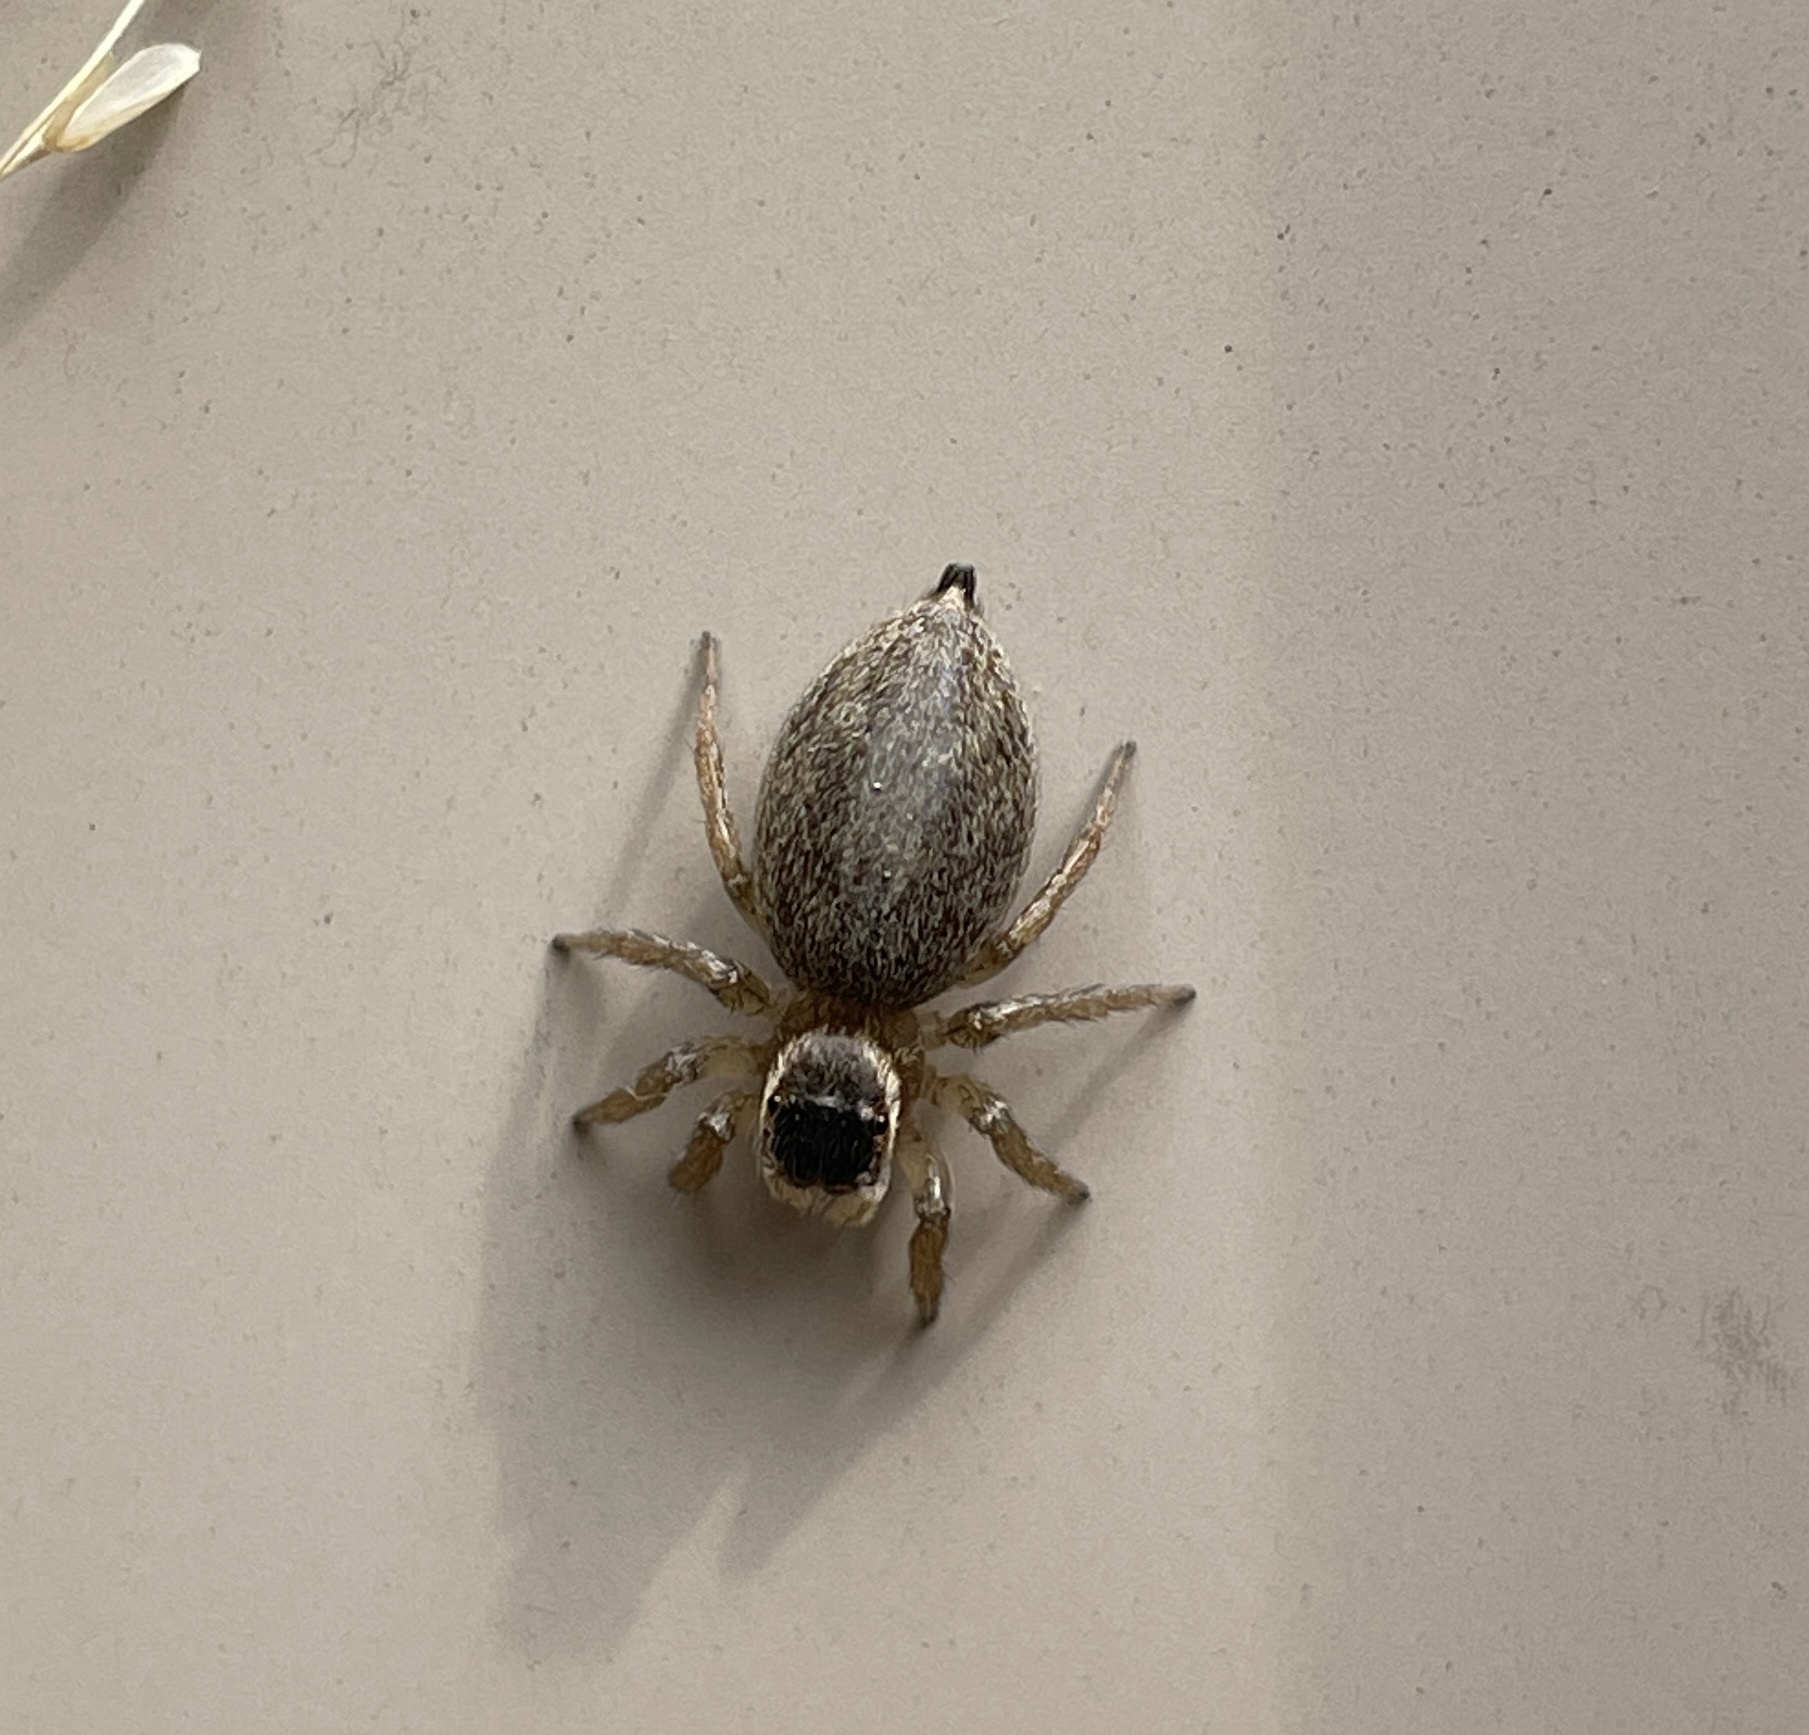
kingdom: Animalia
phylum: Arthropoda
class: Arachnida
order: Araneae
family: Salticidae
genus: Maratus
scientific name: Maratus griseus
